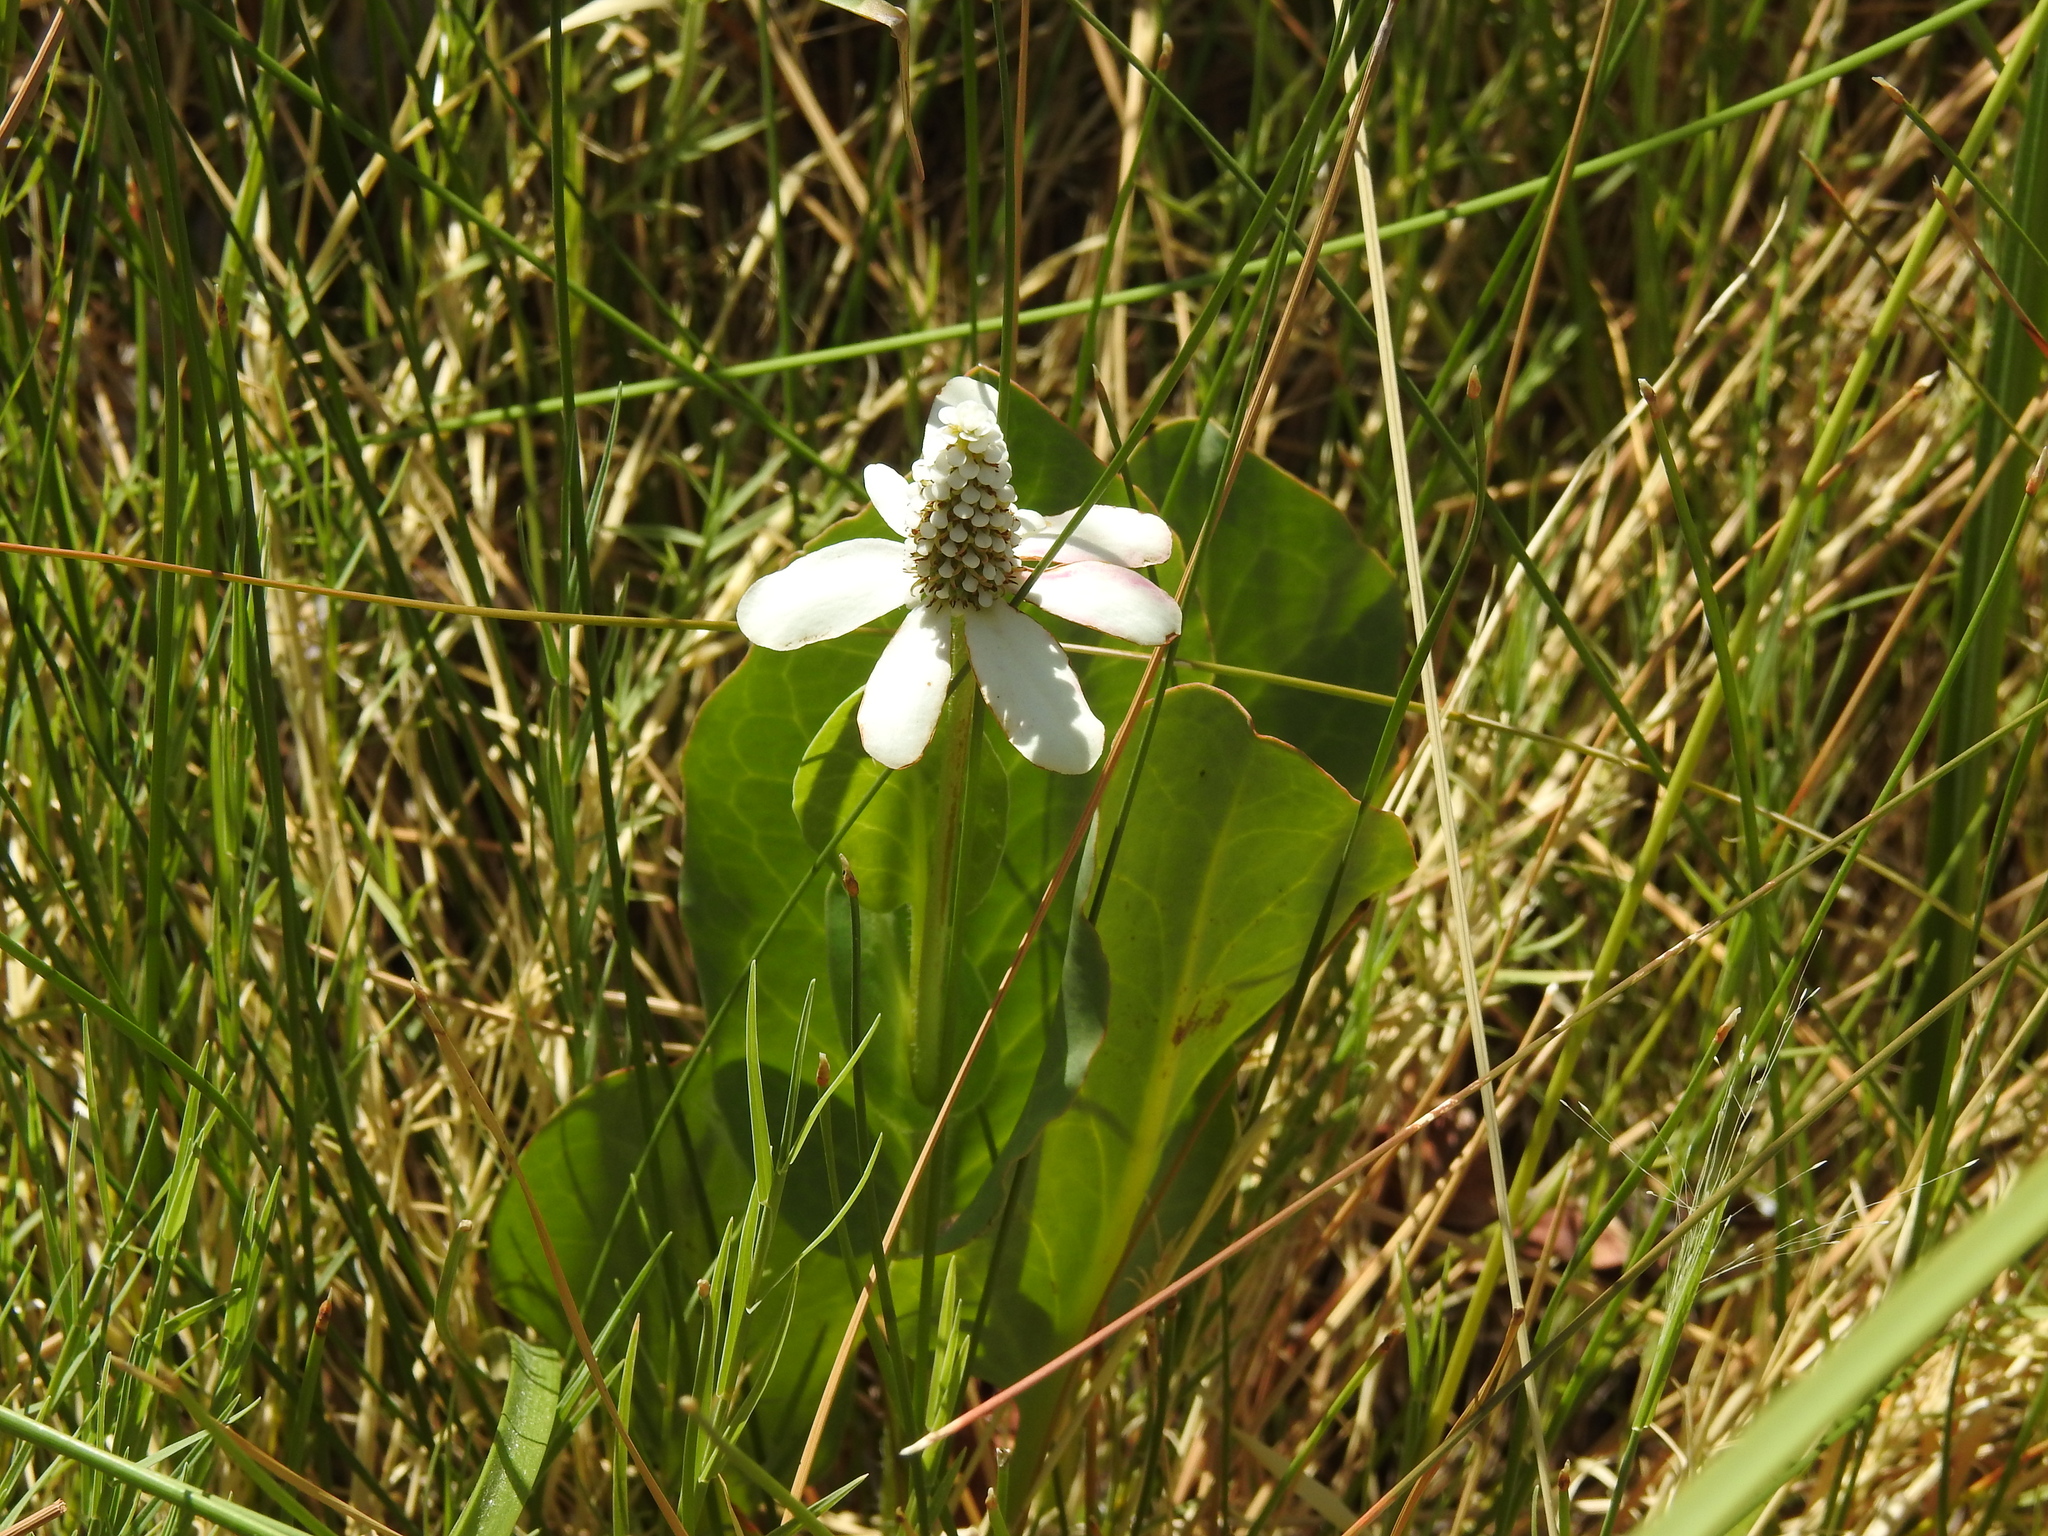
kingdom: Plantae
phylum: Tracheophyta
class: Magnoliopsida
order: Piperales
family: Saururaceae
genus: Anemopsis
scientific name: Anemopsis californica
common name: Apache-beads
